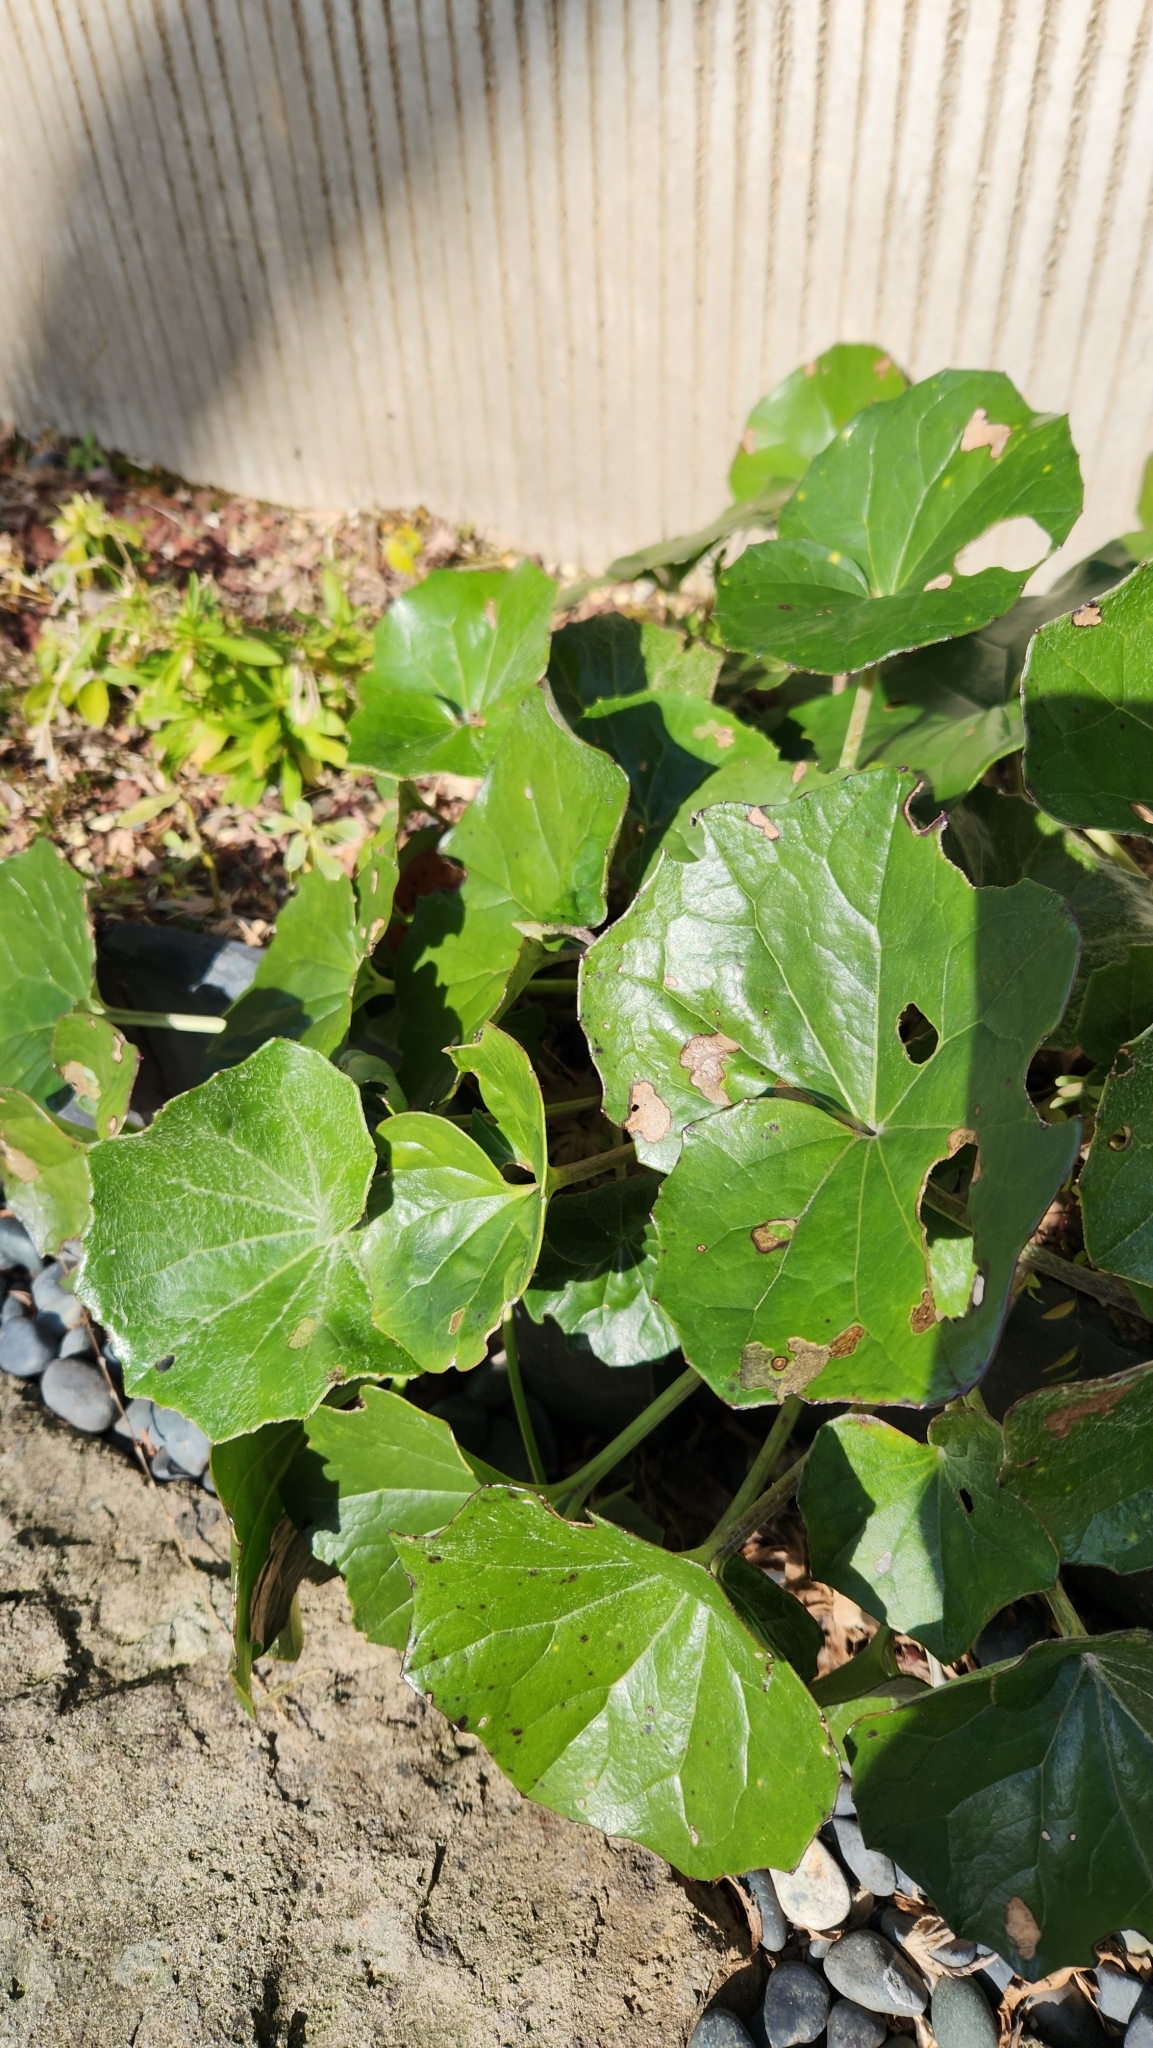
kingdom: Plantae
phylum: Tracheophyta
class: Magnoliopsida
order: Asterales
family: Asteraceae
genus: Farfugium
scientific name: Farfugium japonicum
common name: Leopardplant
